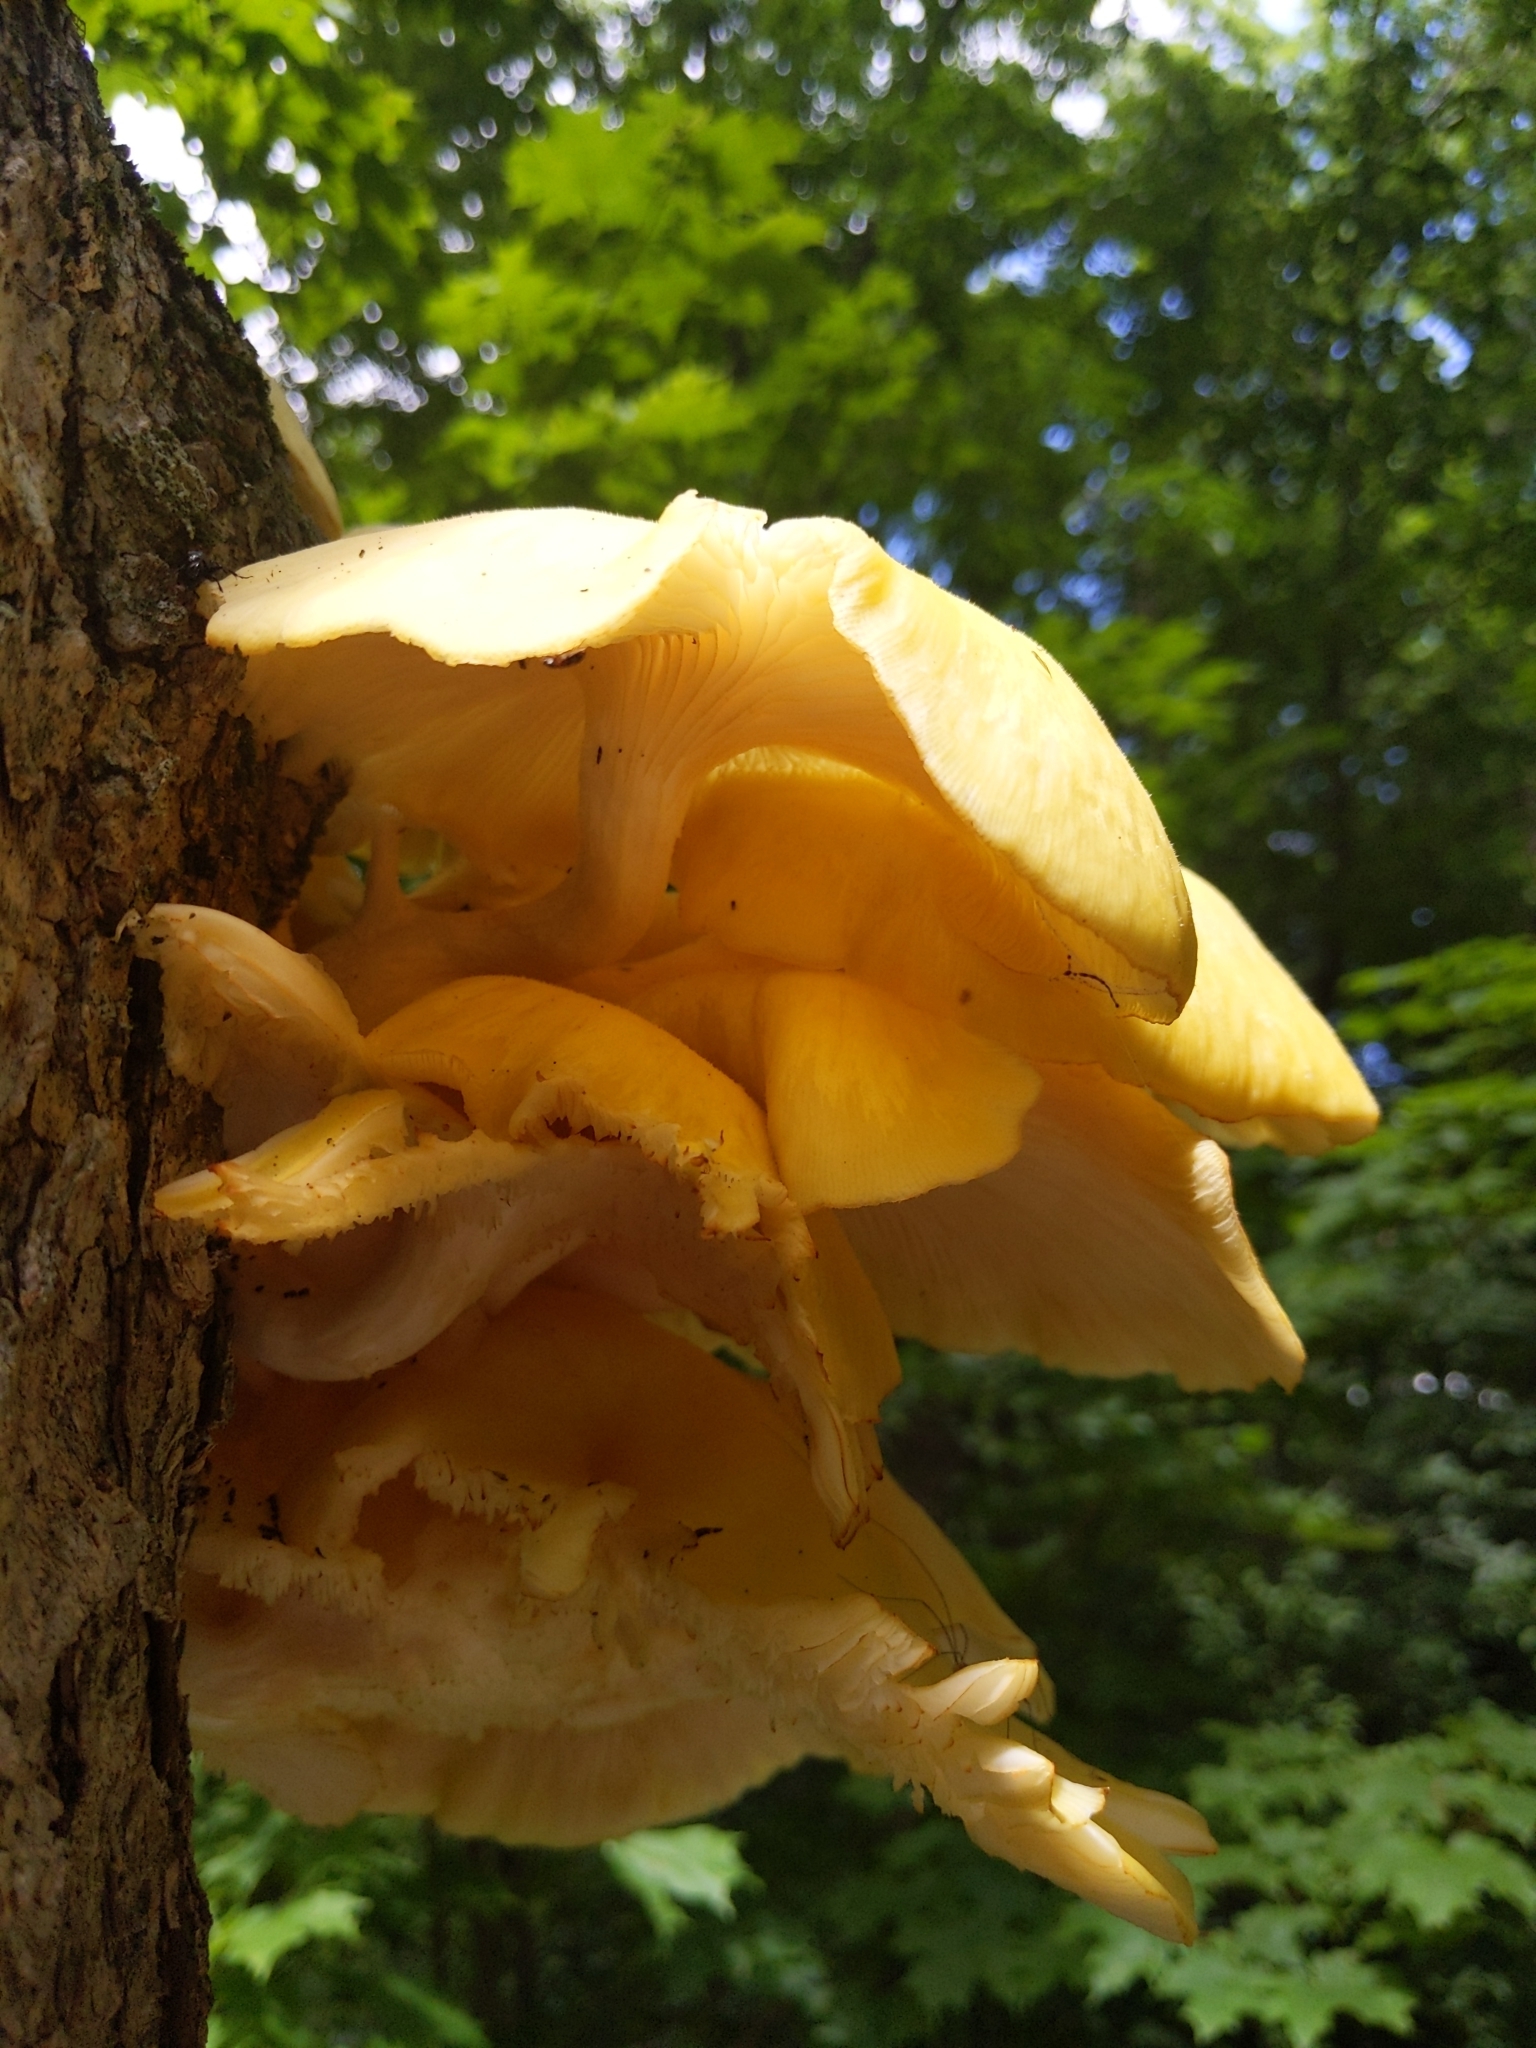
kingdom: Fungi
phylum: Basidiomycota
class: Agaricomycetes
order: Agaricales
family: Pleurotaceae
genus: Pleurotus
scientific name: Pleurotus citrinopileatus
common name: Golden oyster mushroom
